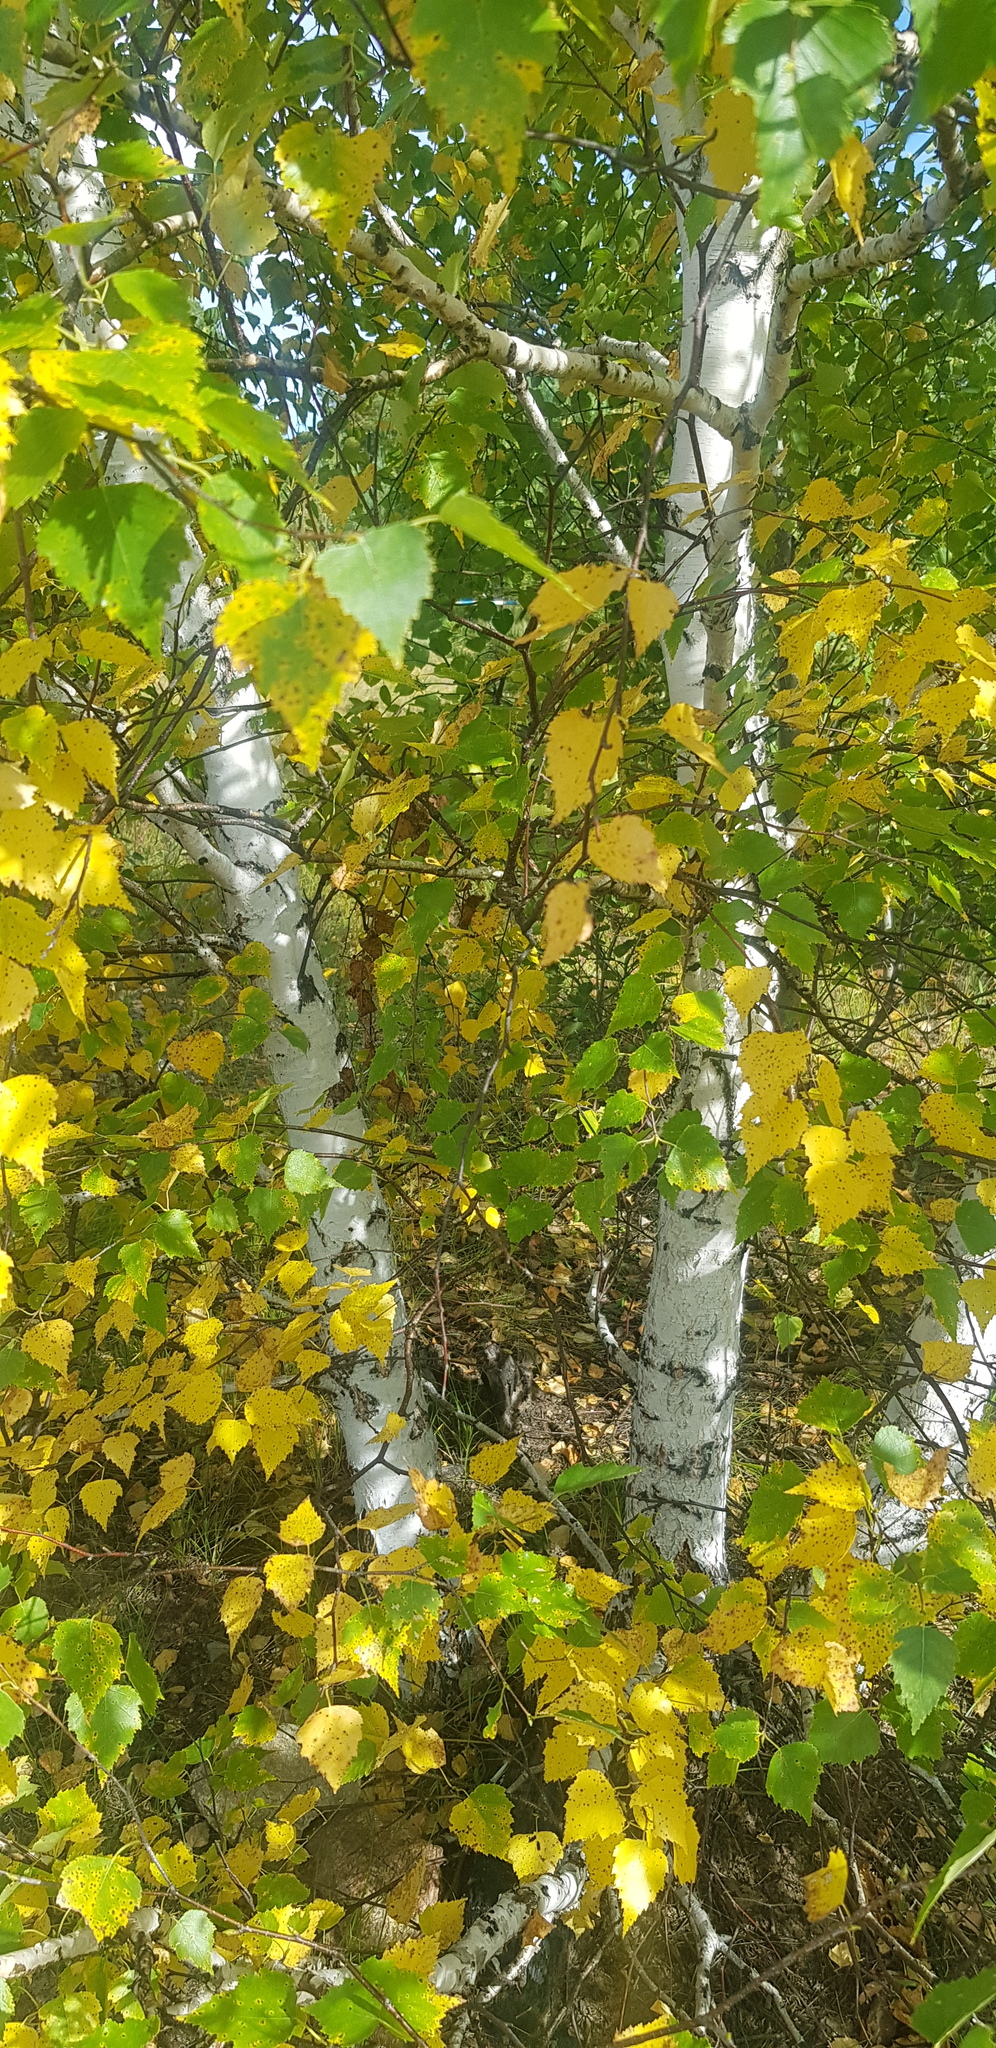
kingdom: Plantae
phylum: Tracheophyta
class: Magnoliopsida
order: Fagales
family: Betulaceae
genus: Betula
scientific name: Betula pendula
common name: Silver birch
